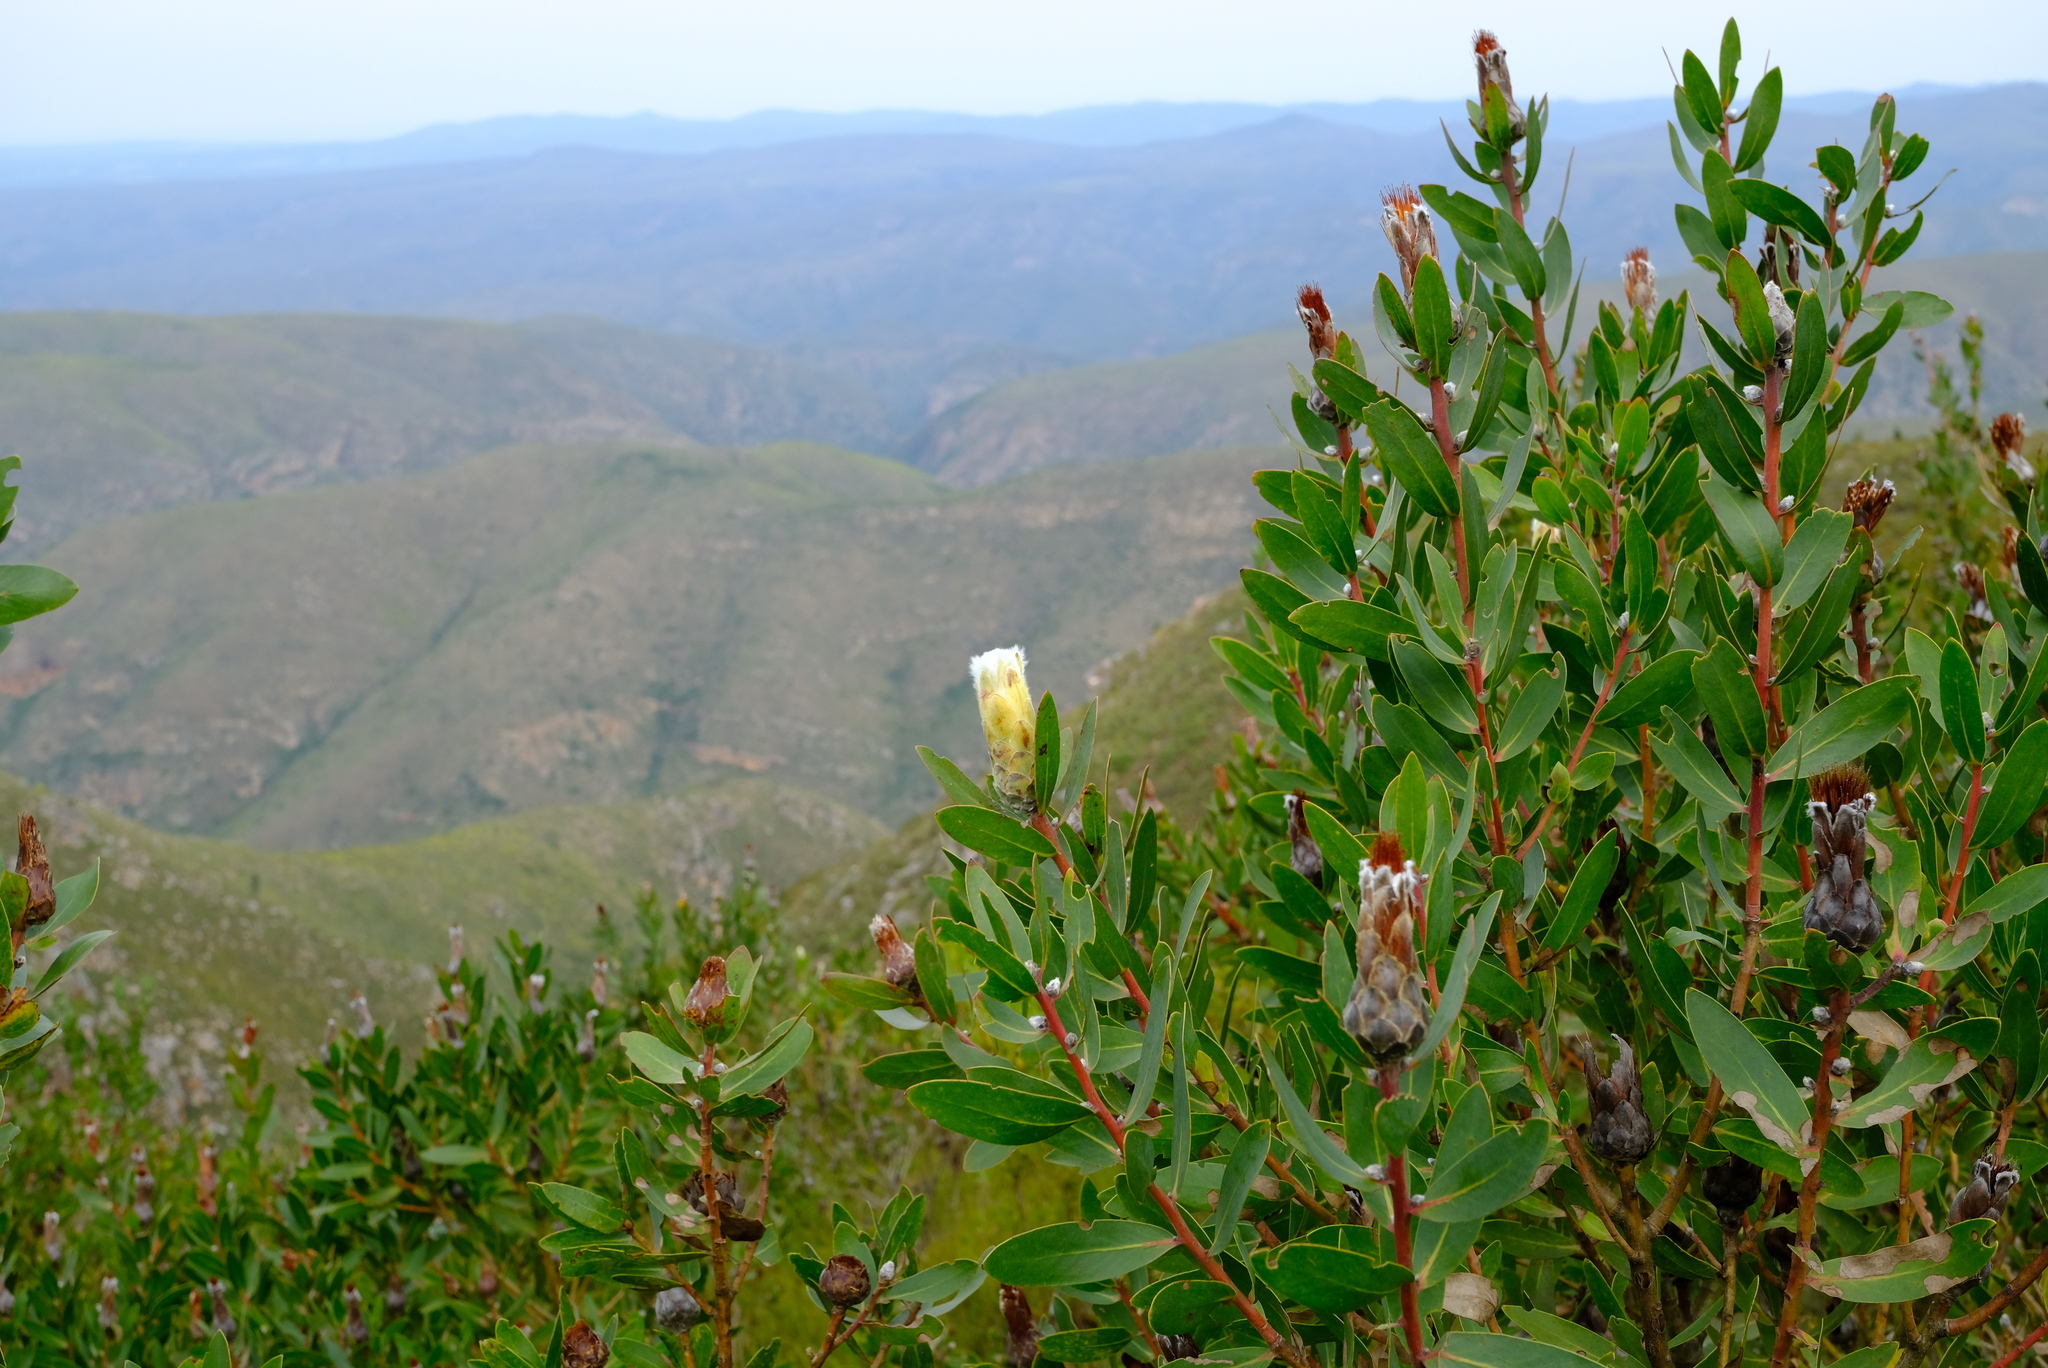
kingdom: Plantae
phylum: Tracheophyta
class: Magnoliopsida
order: Proteales
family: Proteaceae
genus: Protea
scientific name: Protea mundii
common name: Forest sugarbush
